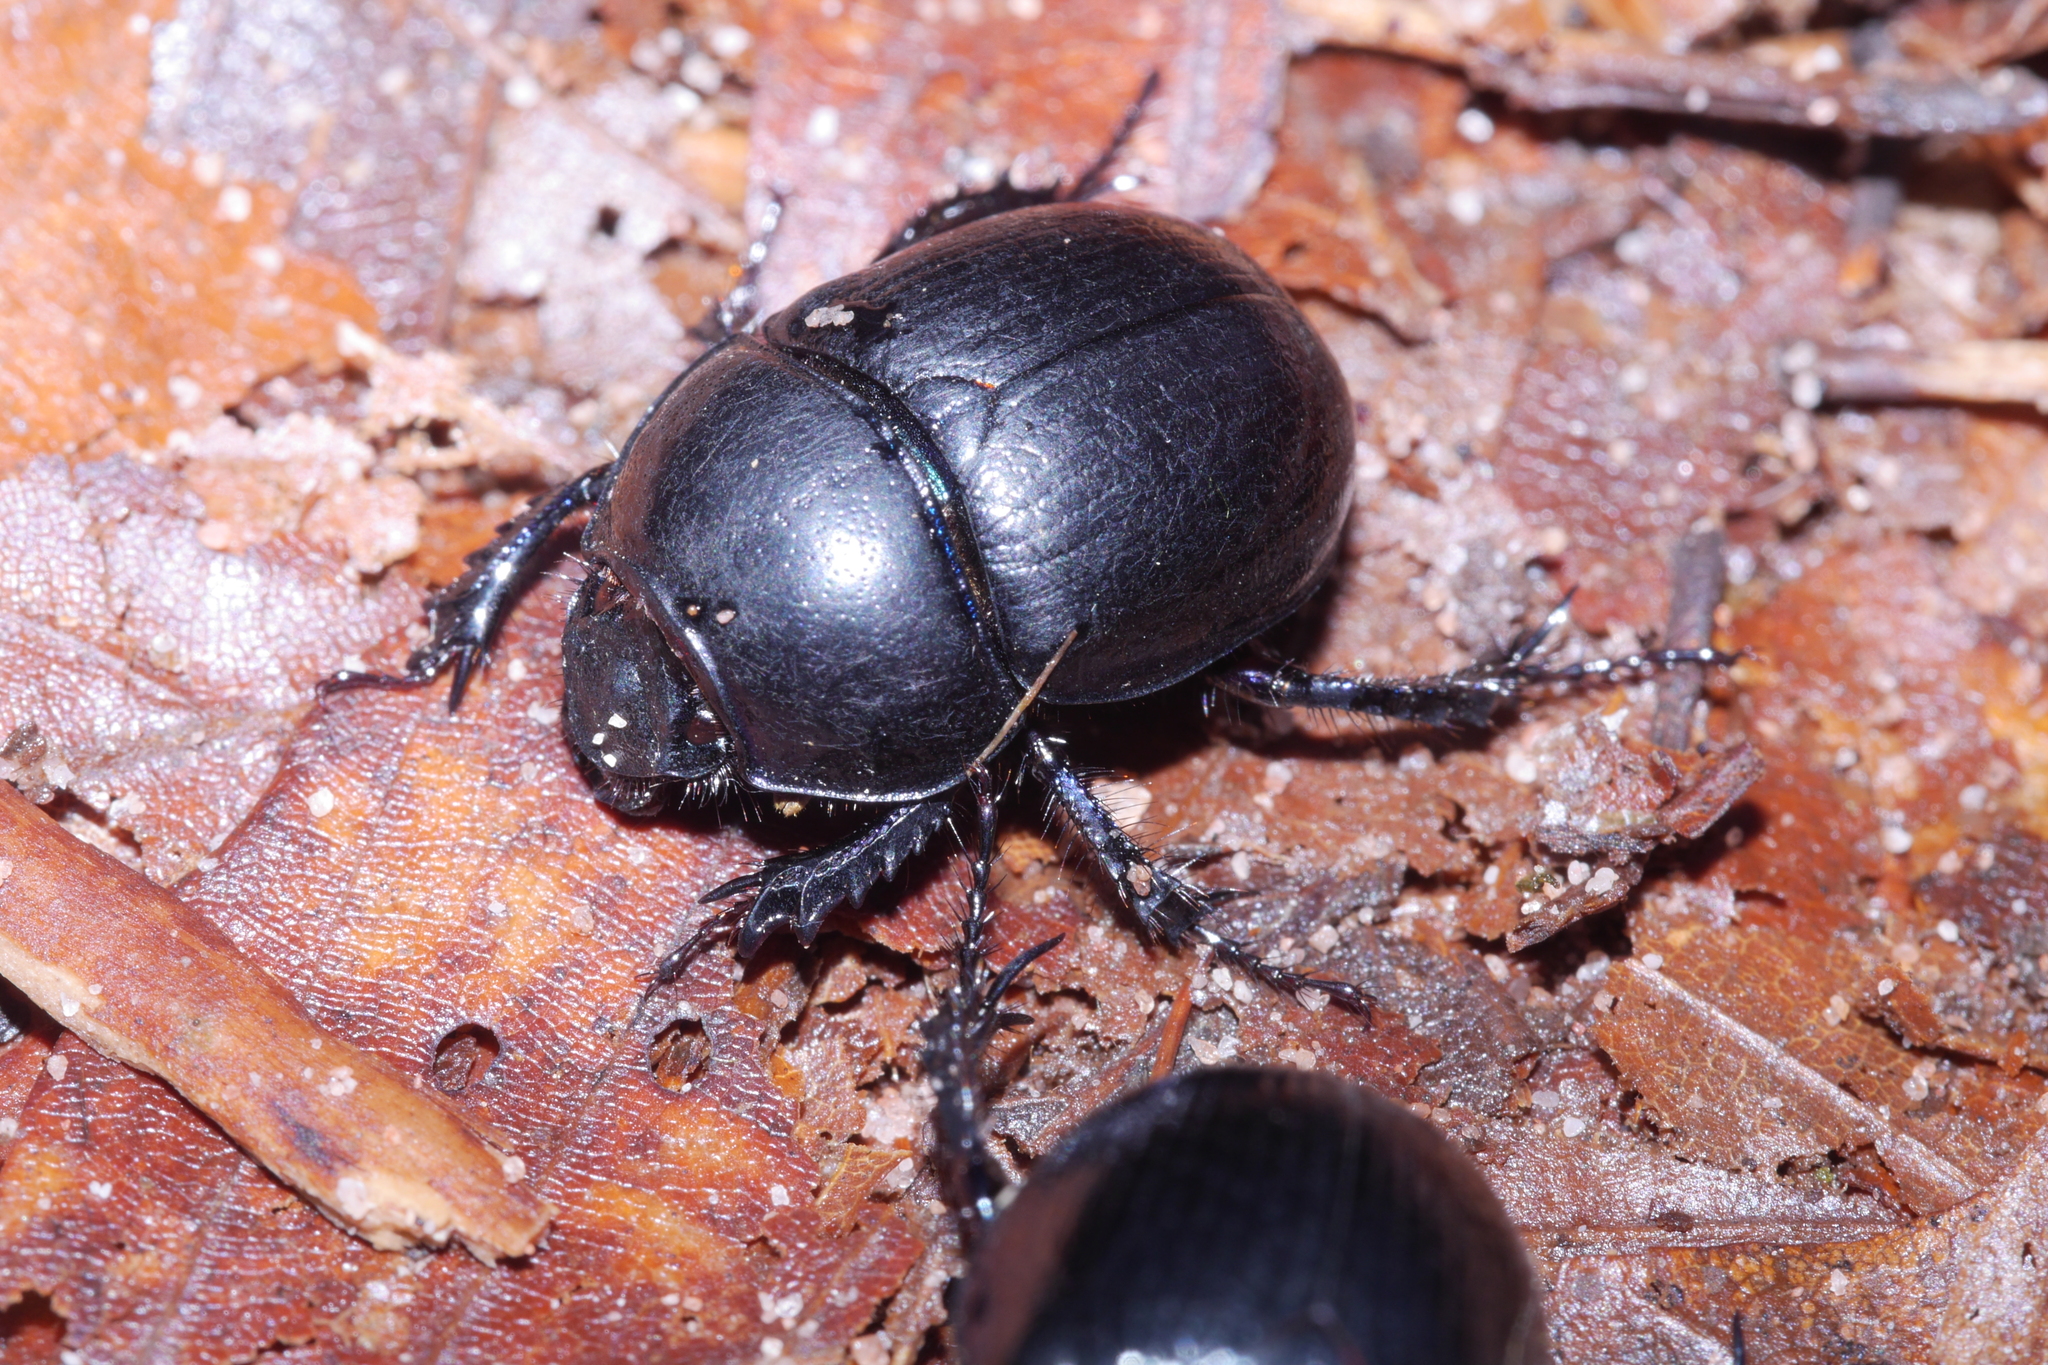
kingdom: Animalia
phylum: Arthropoda
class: Insecta
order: Coleoptera
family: Geotrupidae
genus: Anoplotrupes
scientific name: Anoplotrupes stercorosus
